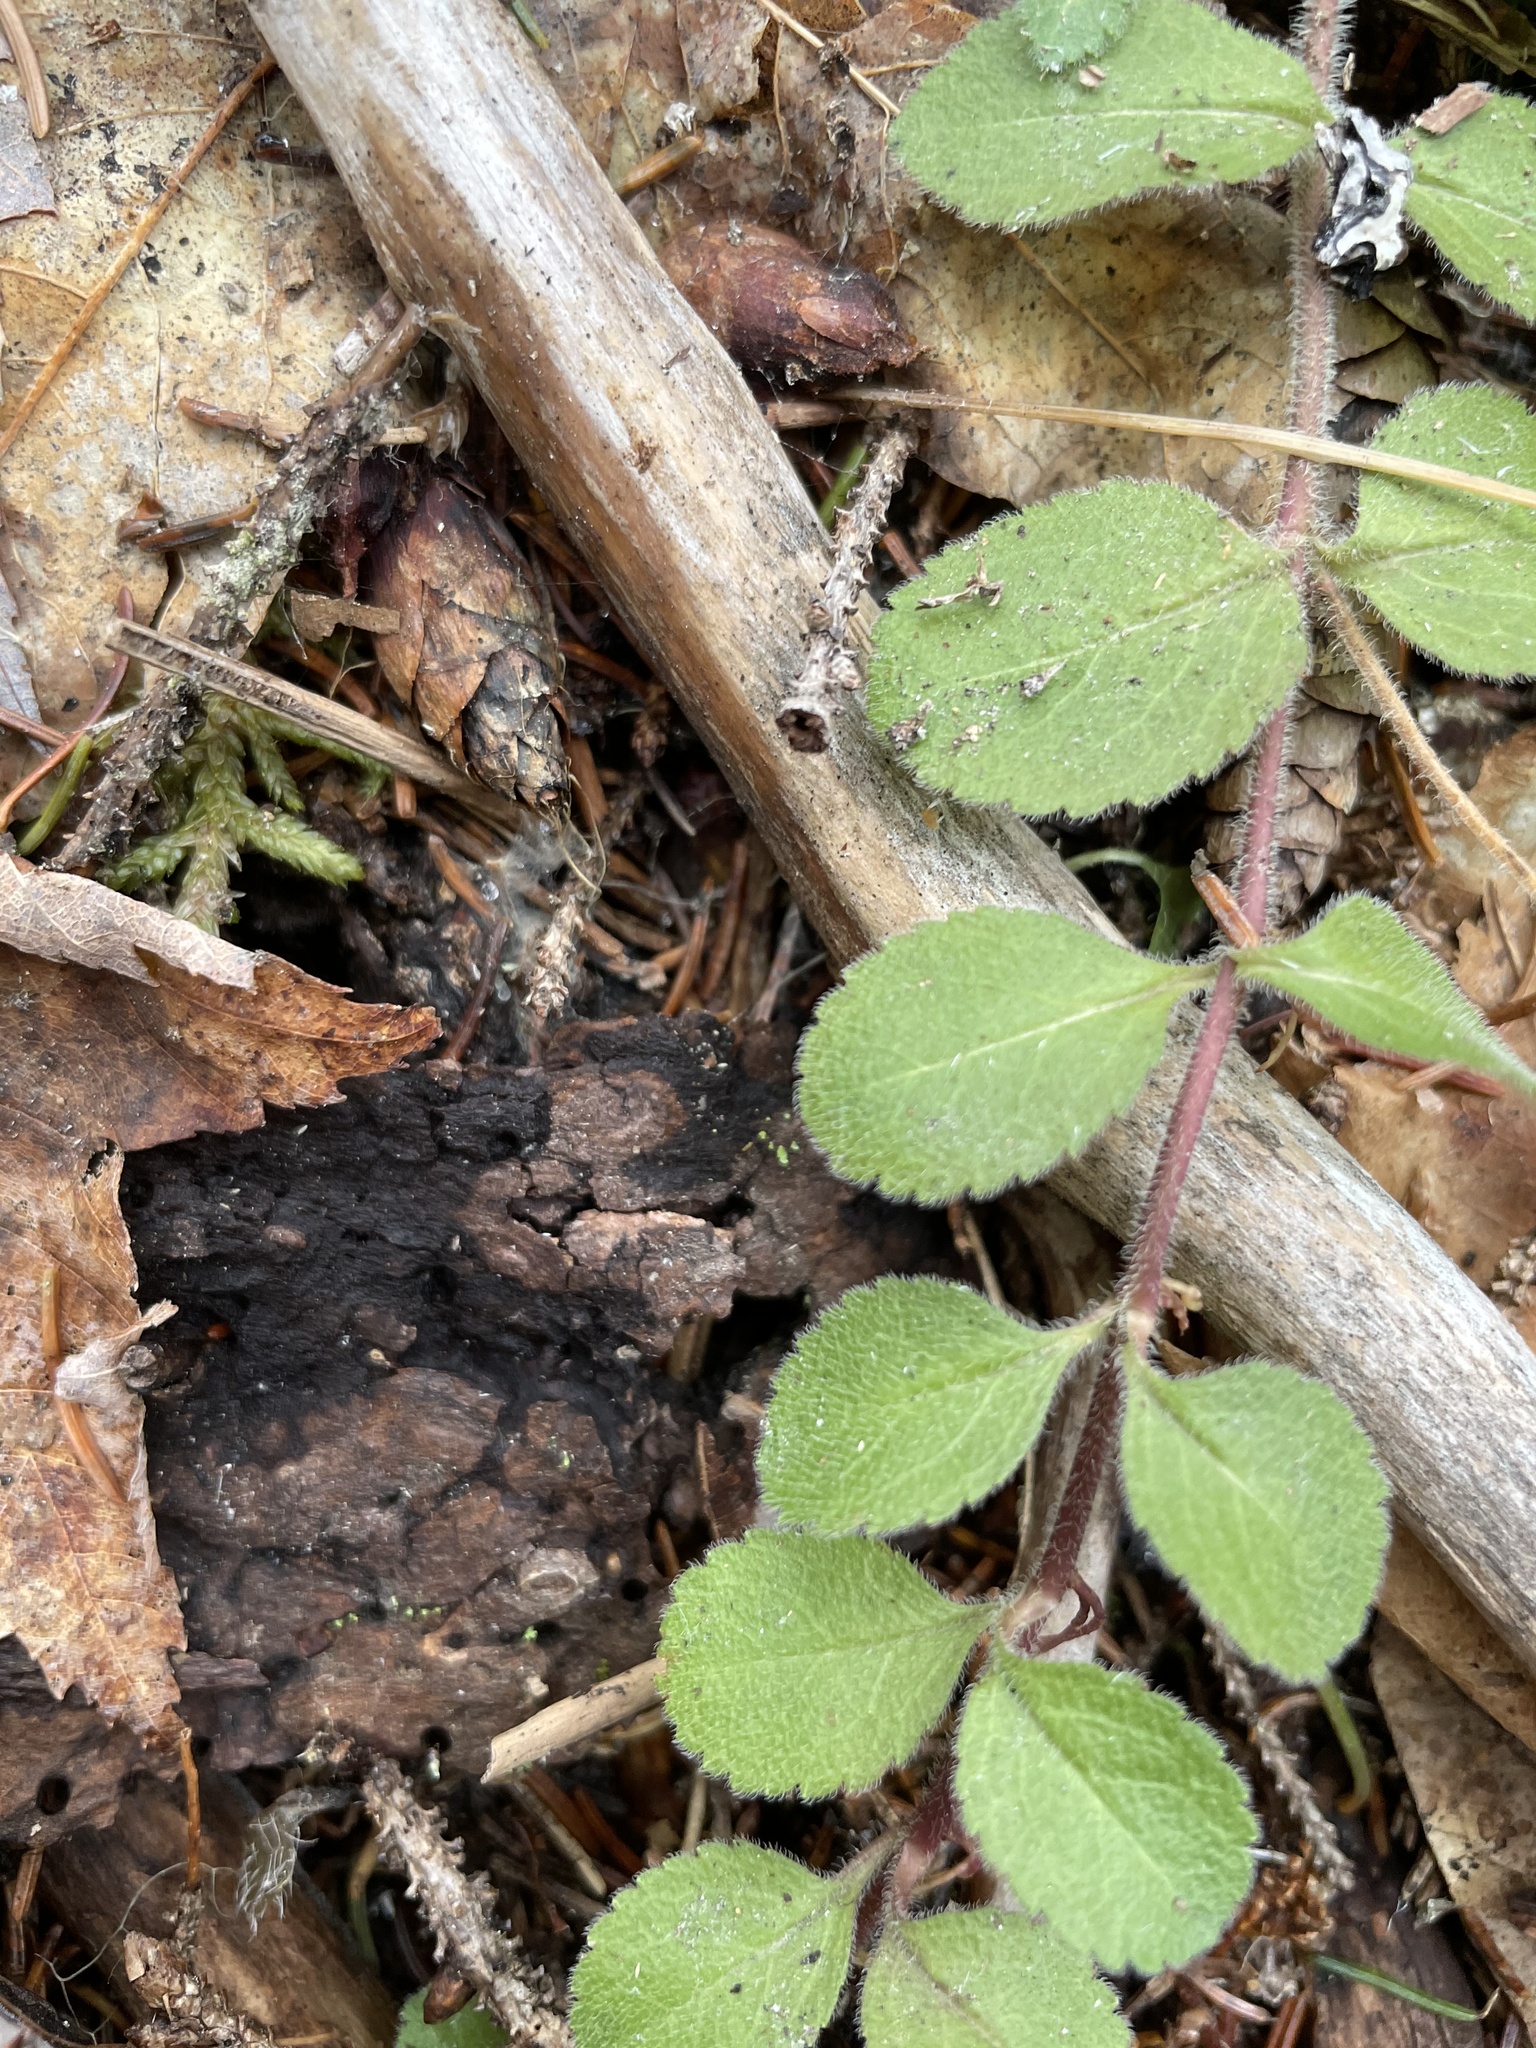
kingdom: Plantae
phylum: Tracheophyta
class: Magnoliopsida
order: Lamiales
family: Plantaginaceae
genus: Veronica
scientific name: Veronica officinalis
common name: Common speedwell
